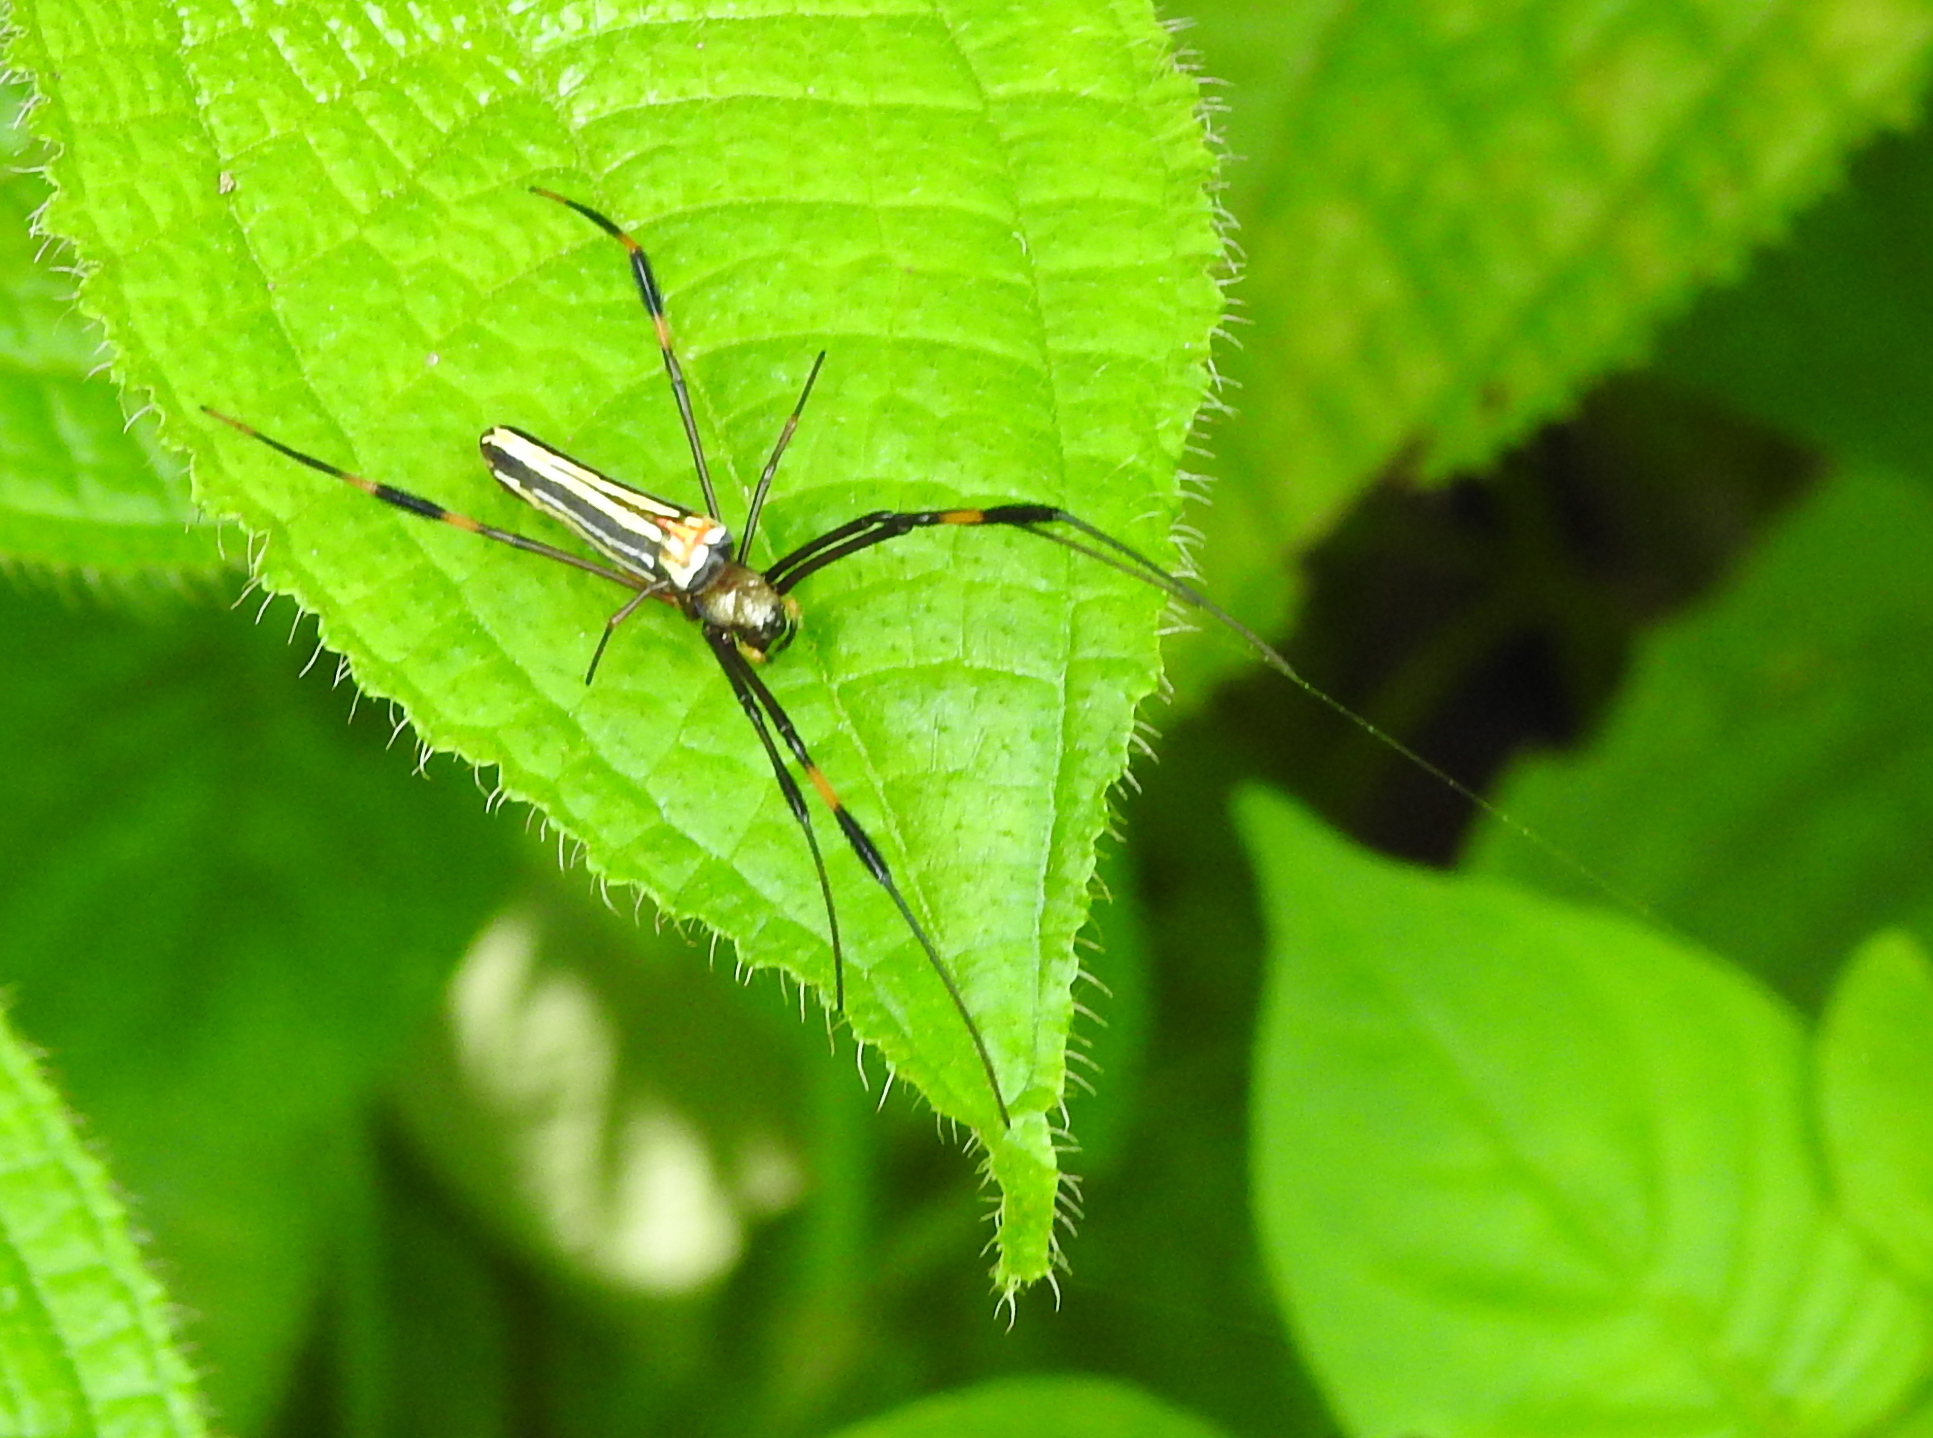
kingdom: Animalia
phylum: Arthropoda
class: Arachnida
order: Araneae
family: Araneidae
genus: Nephila
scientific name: Nephila pilipes
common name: Giant golden orb weaver
